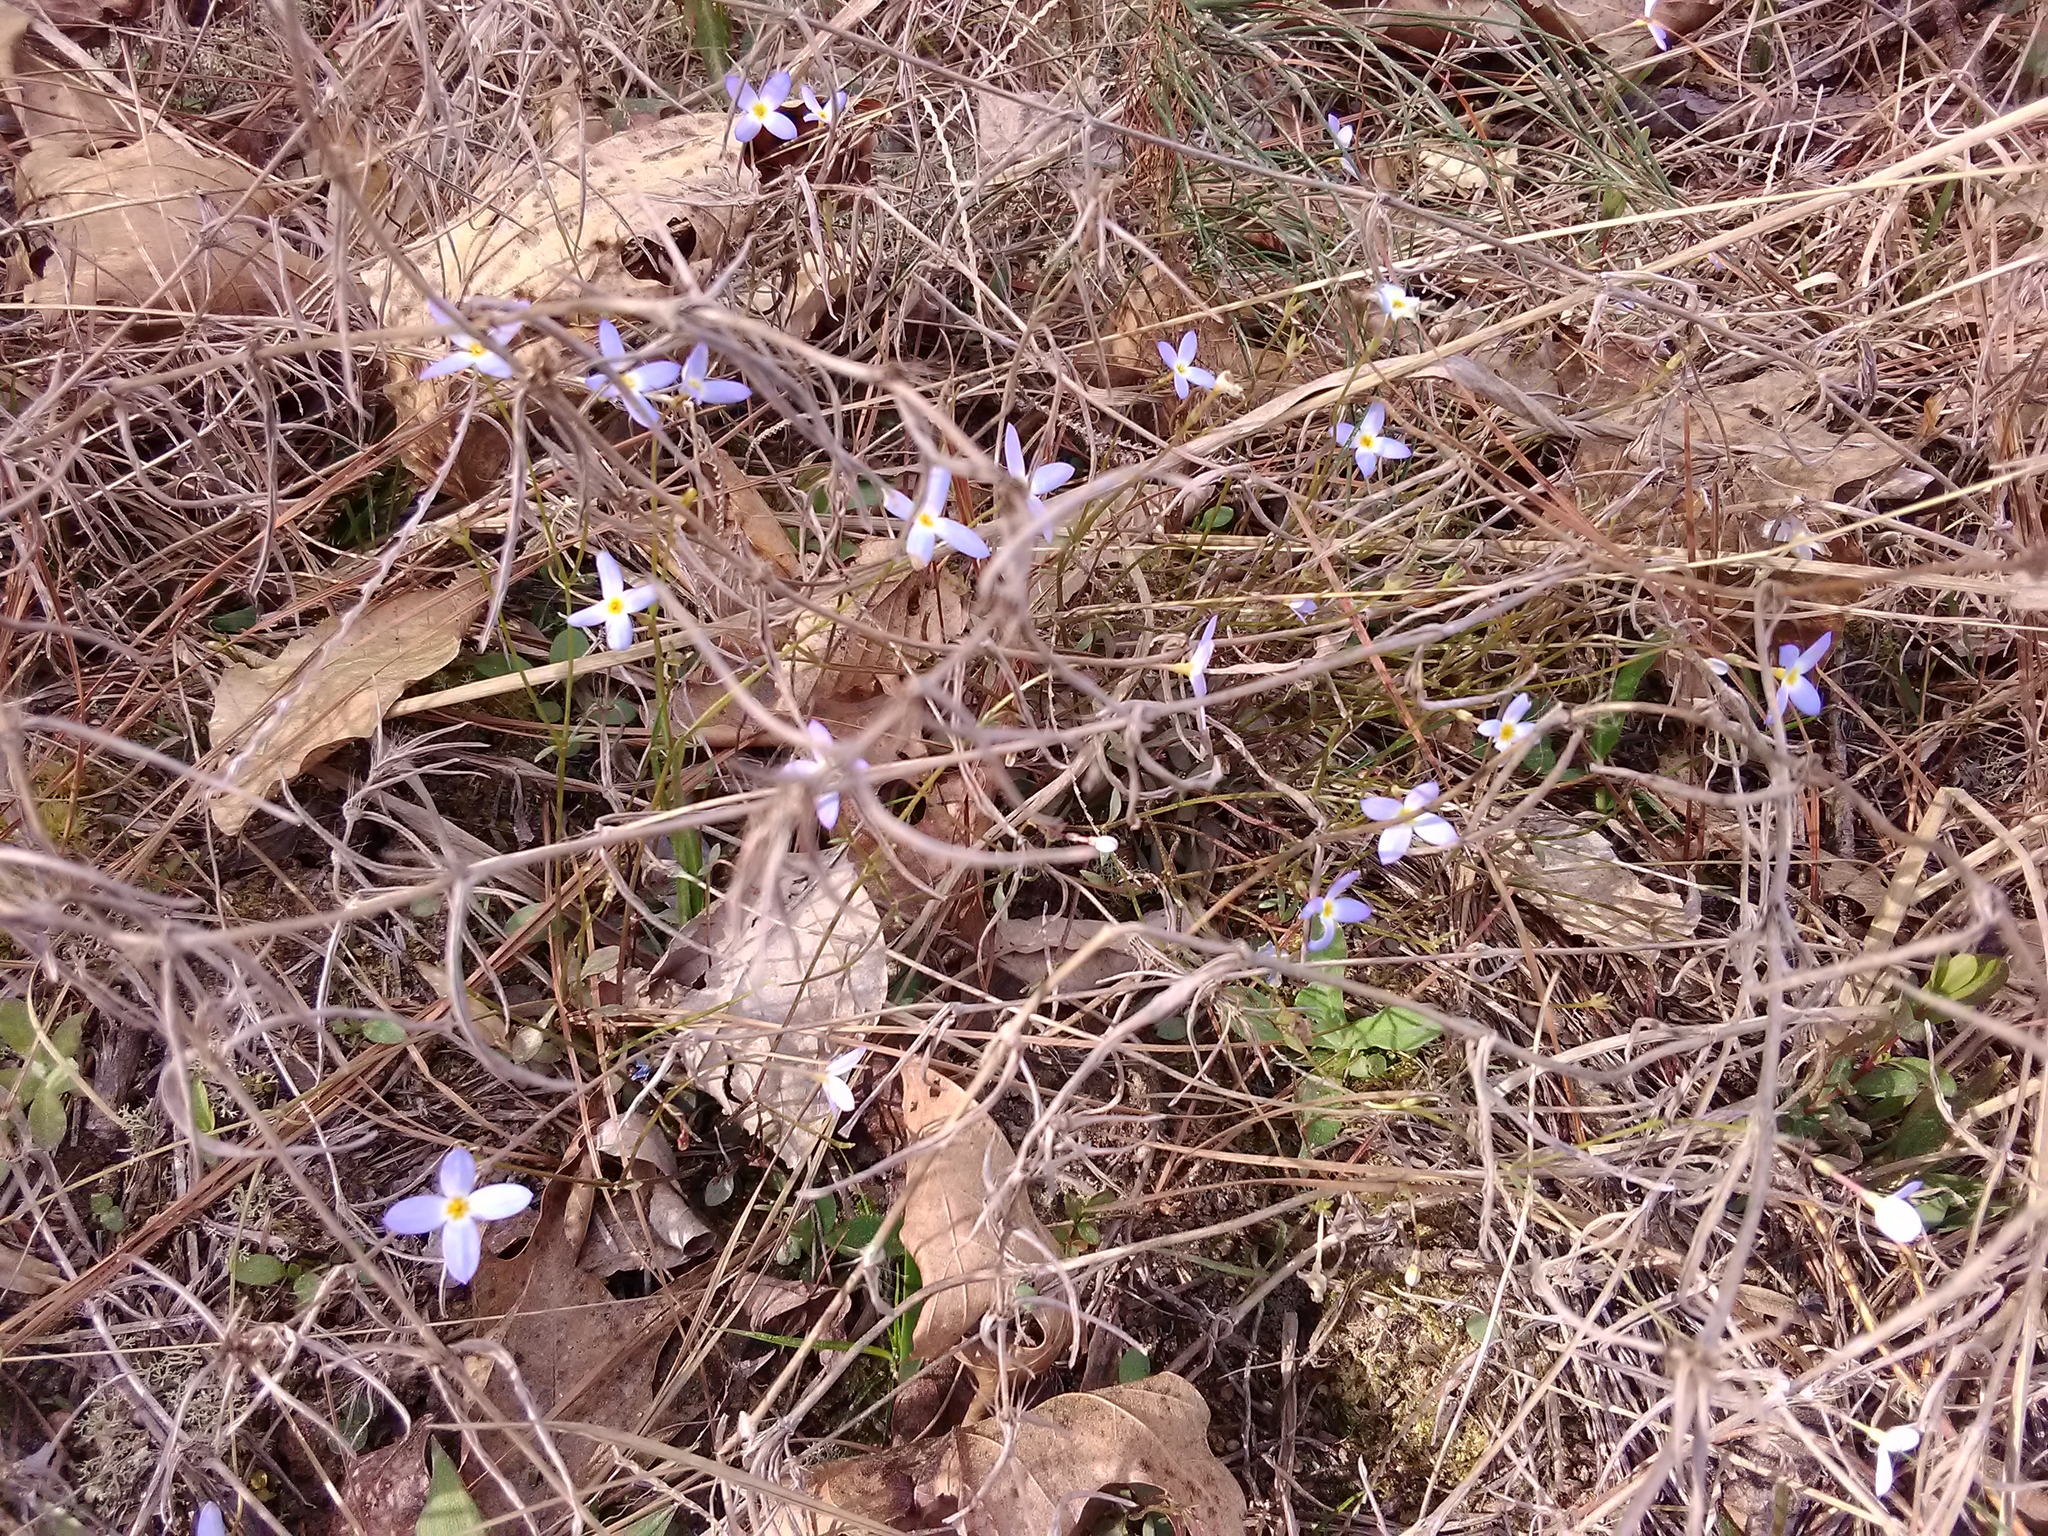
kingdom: Plantae
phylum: Tracheophyta
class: Magnoliopsida
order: Gentianales
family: Rubiaceae
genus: Houstonia
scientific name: Houstonia caerulea
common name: Bluets
